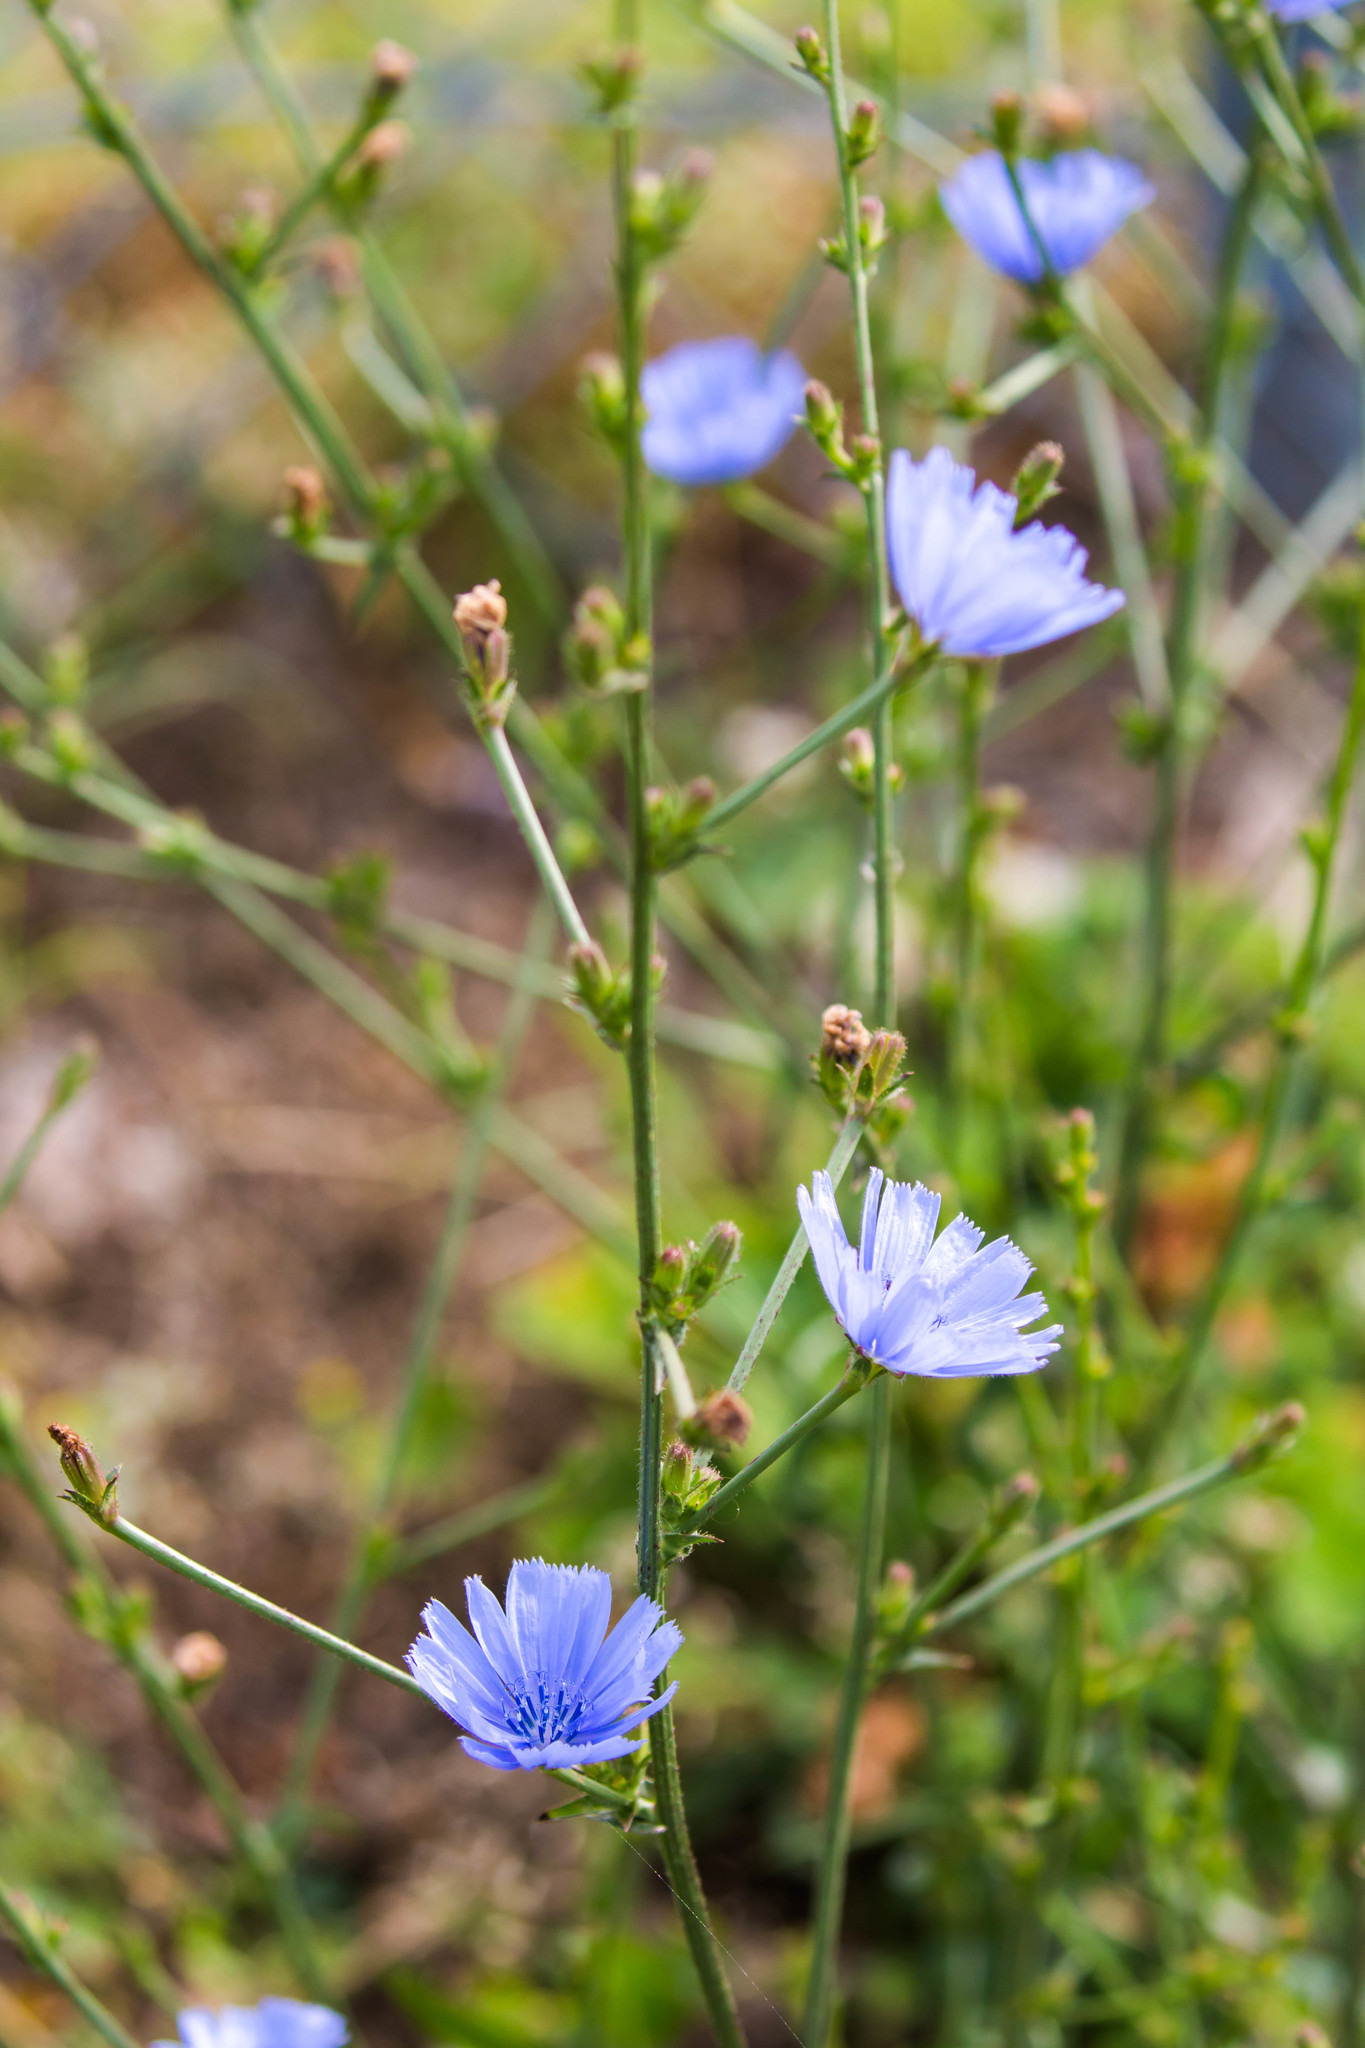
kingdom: Plantae
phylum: Tracheophyta
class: Magnoliopsida
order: Asterales
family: Asteraceae
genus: Cichorium
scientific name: Cichorium intybus
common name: Chicory
